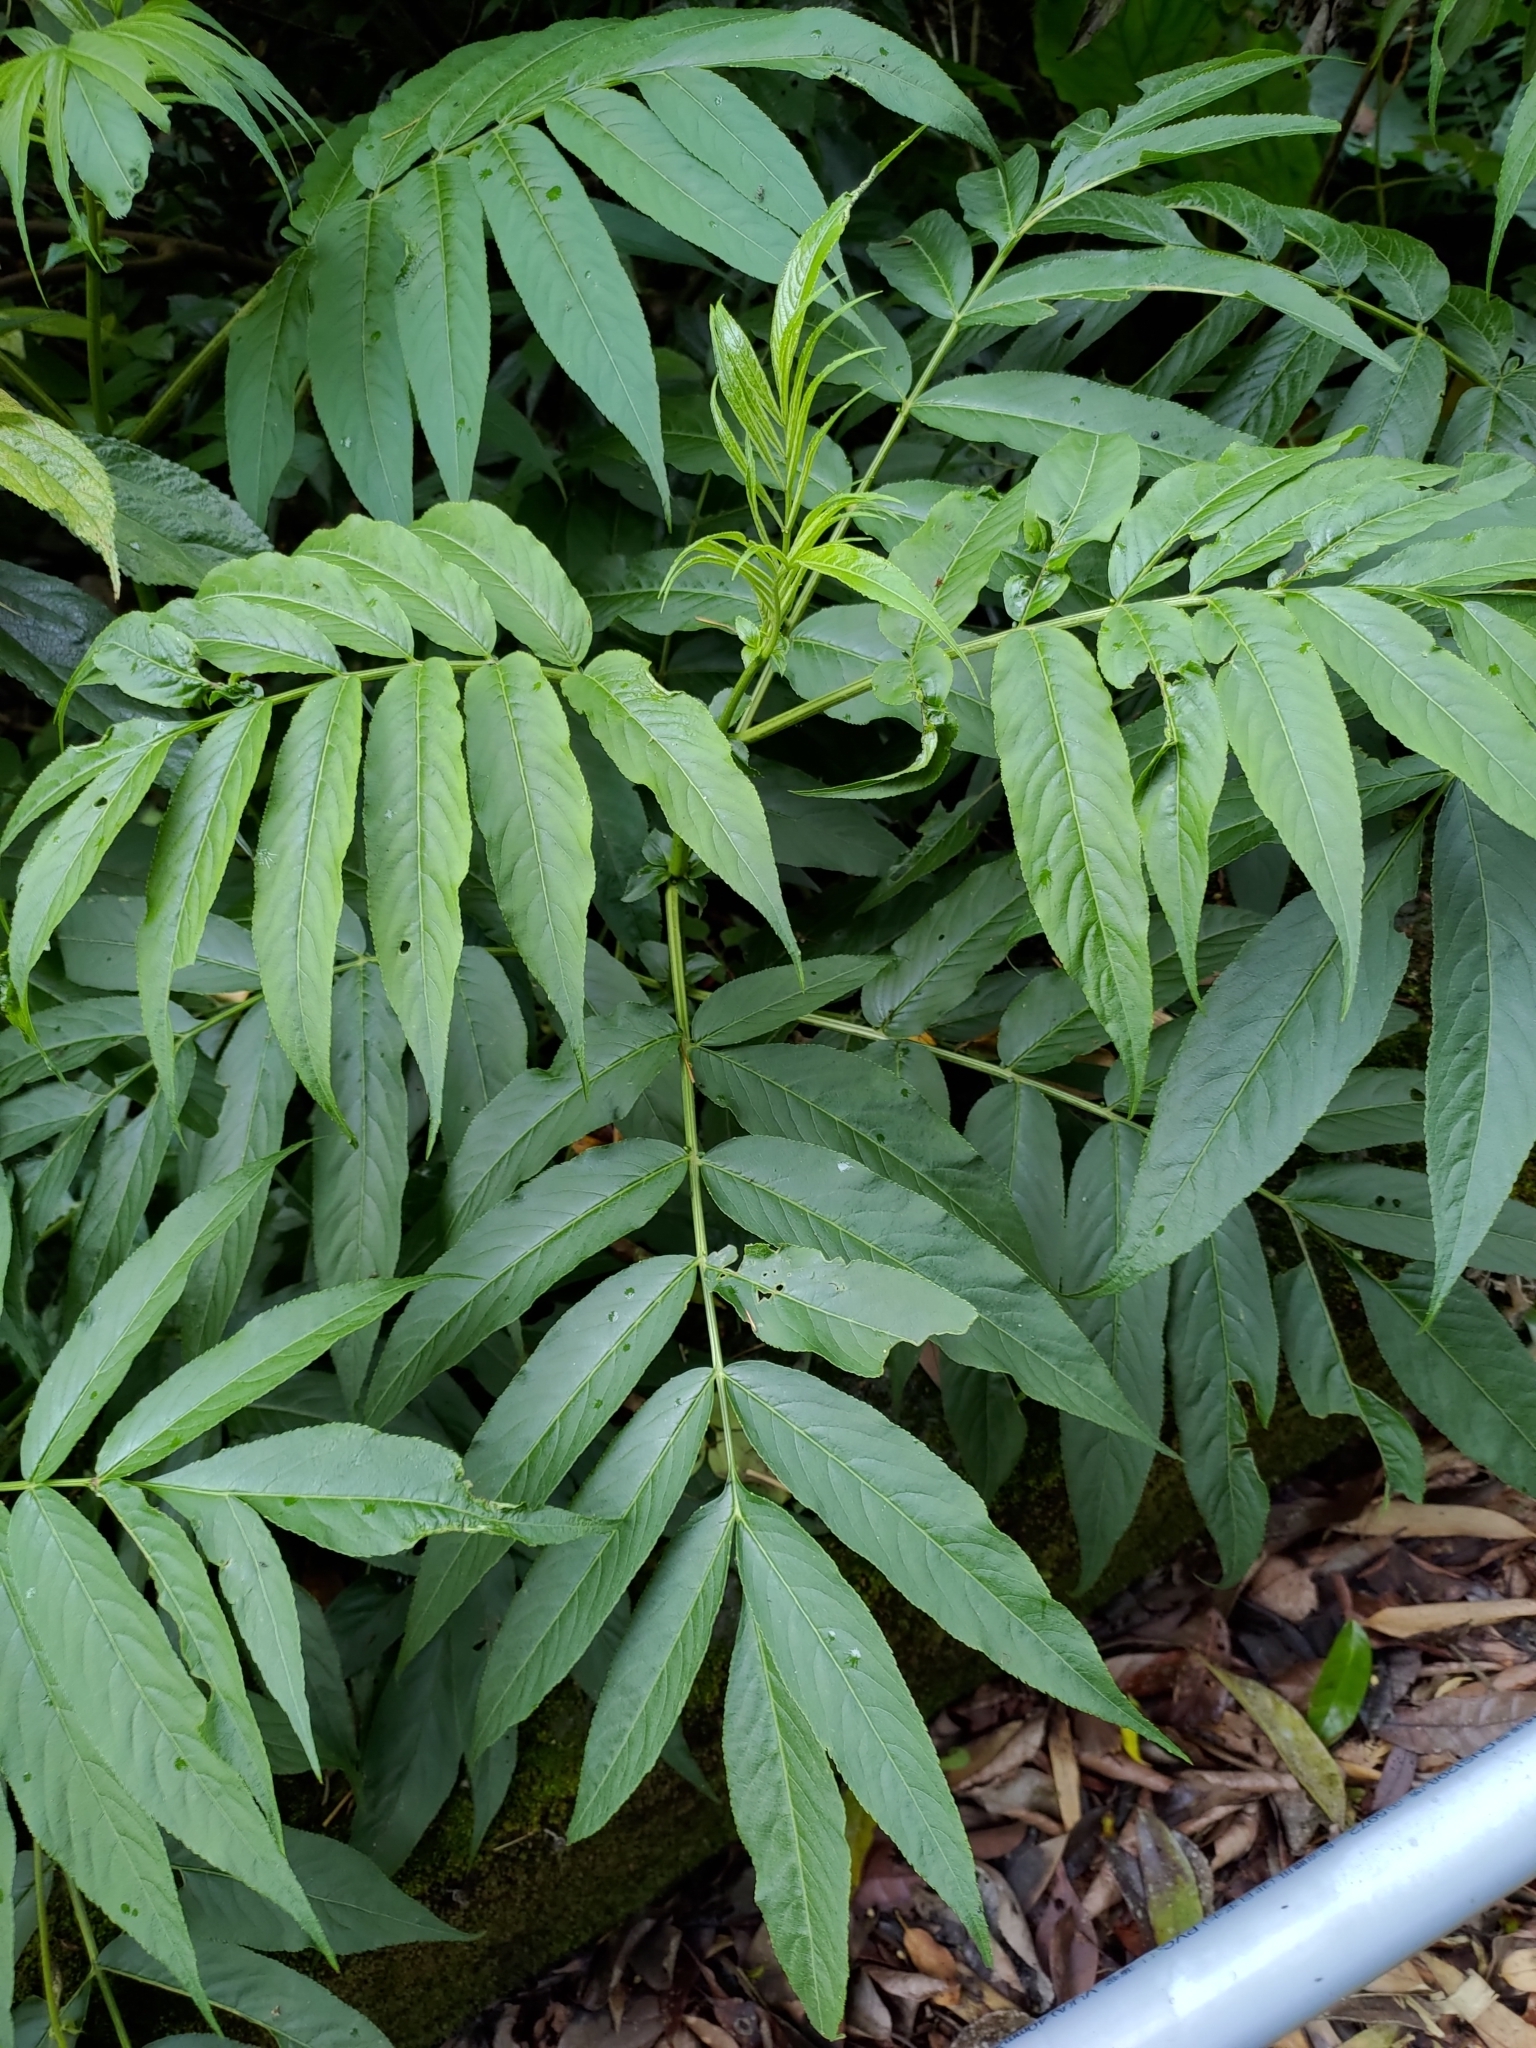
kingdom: Plantae
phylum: Tracheophyta
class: Magnoliopsida
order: Dipsacales
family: Viburnaceae
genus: Sambucus
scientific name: Sambucus javanica
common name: Chinese elder
